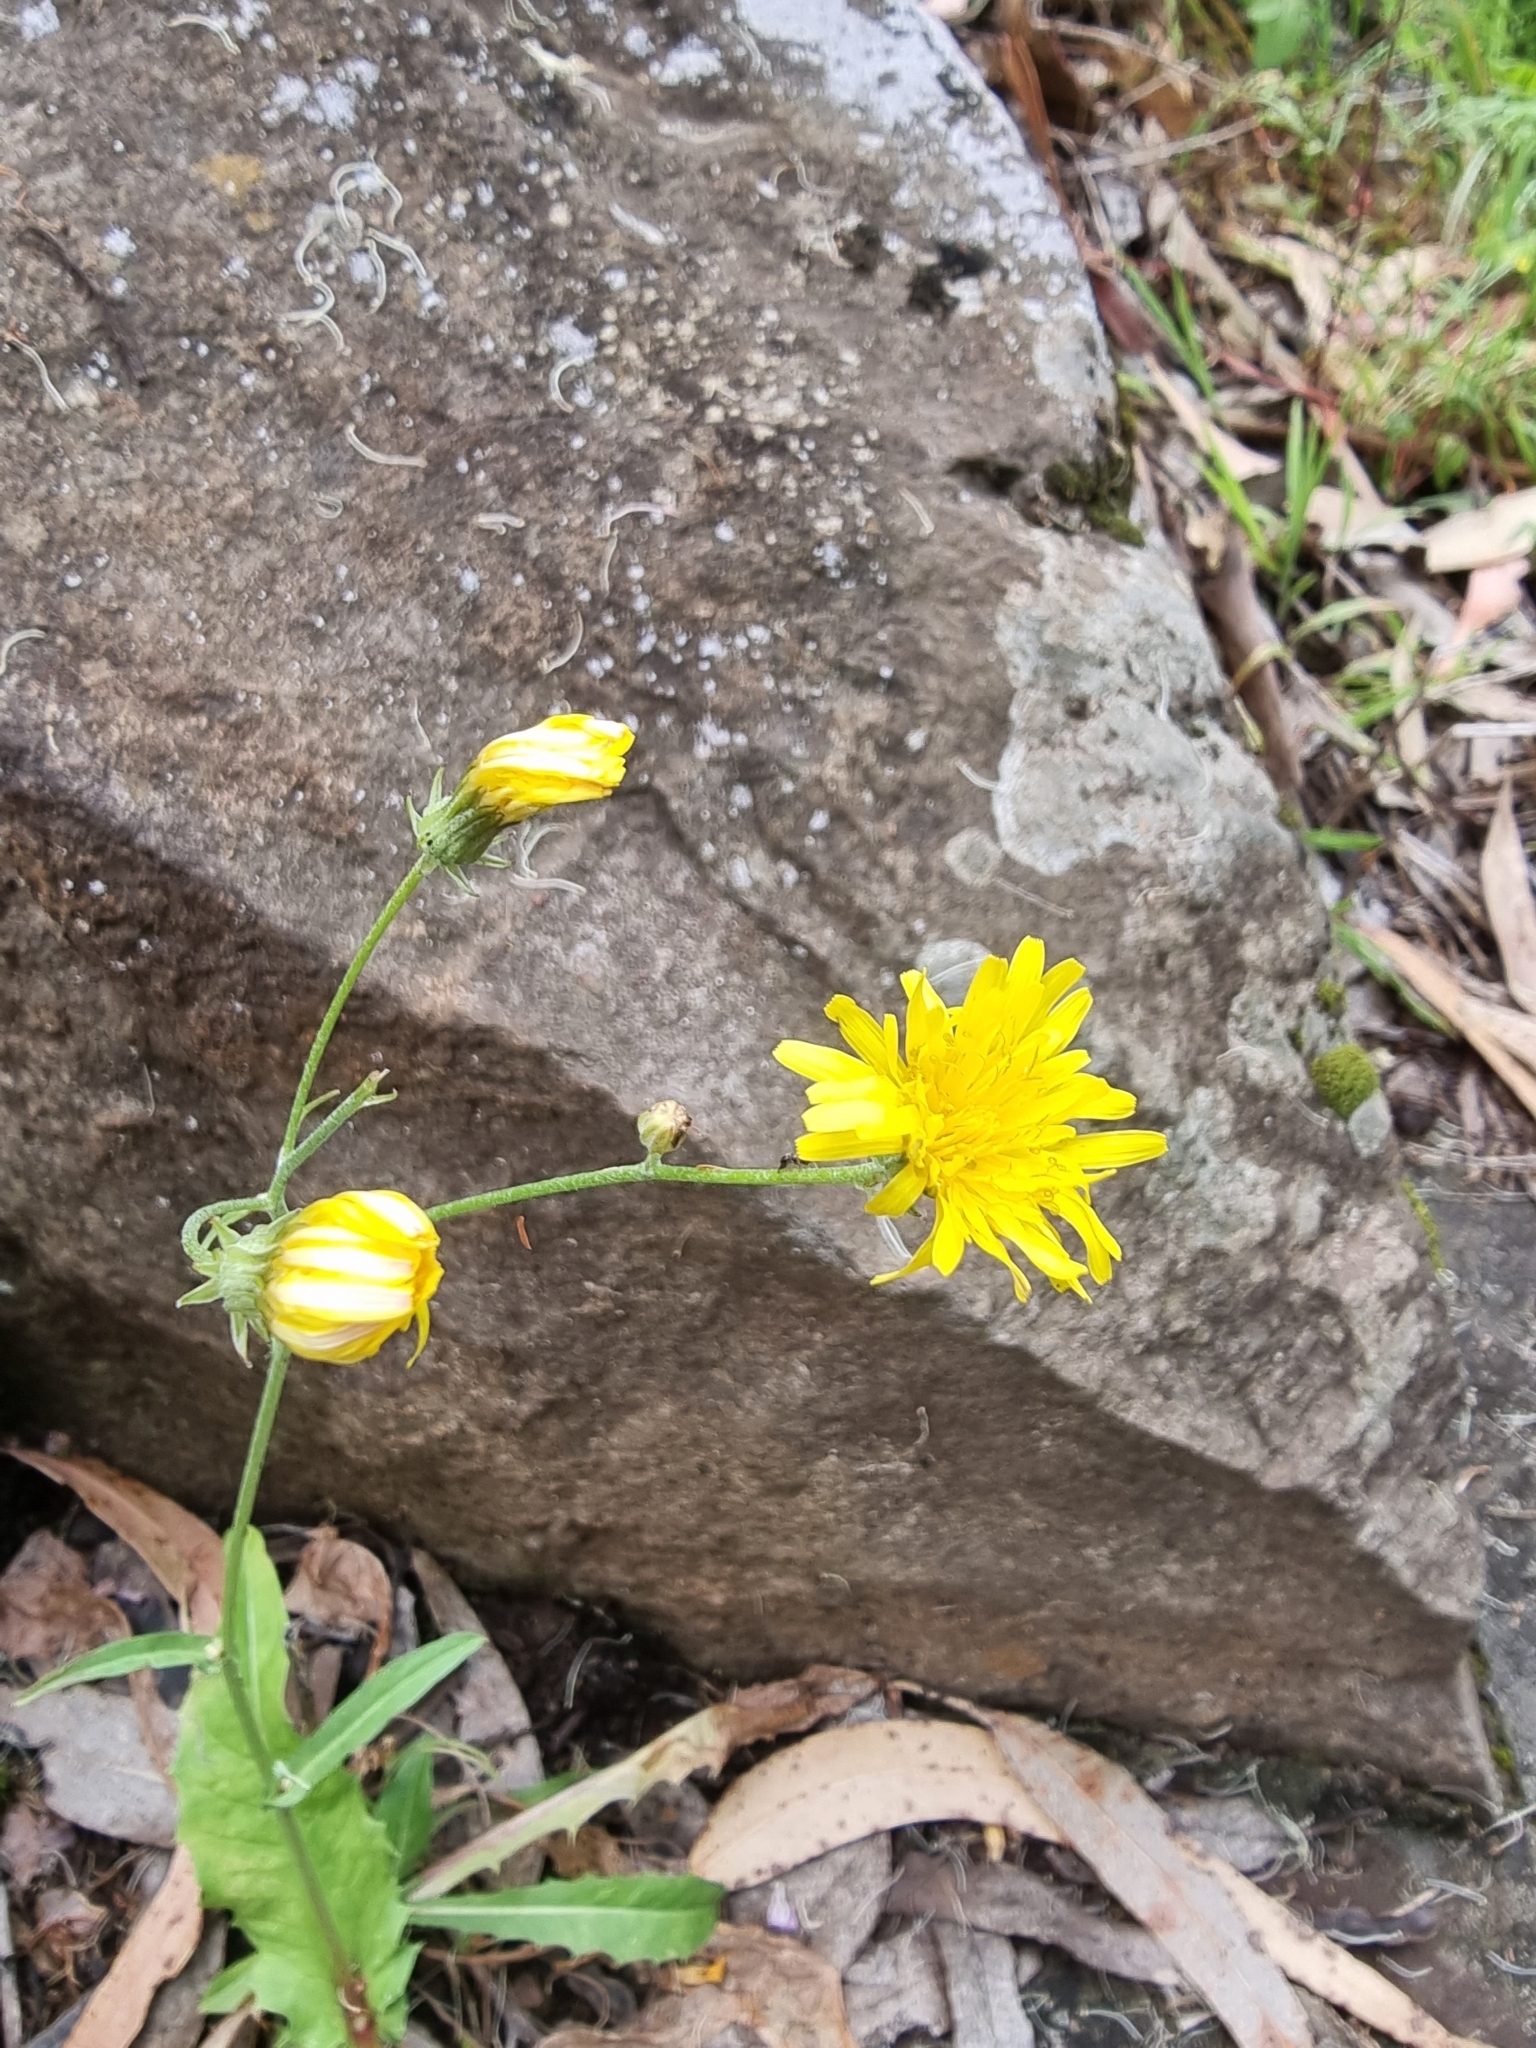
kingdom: Plantae
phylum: Tracheophyta
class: Magnoliopsida
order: Asterales
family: Asteraceae
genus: Crepis
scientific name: Crepis vesicaria
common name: Beaked hawksbeard
